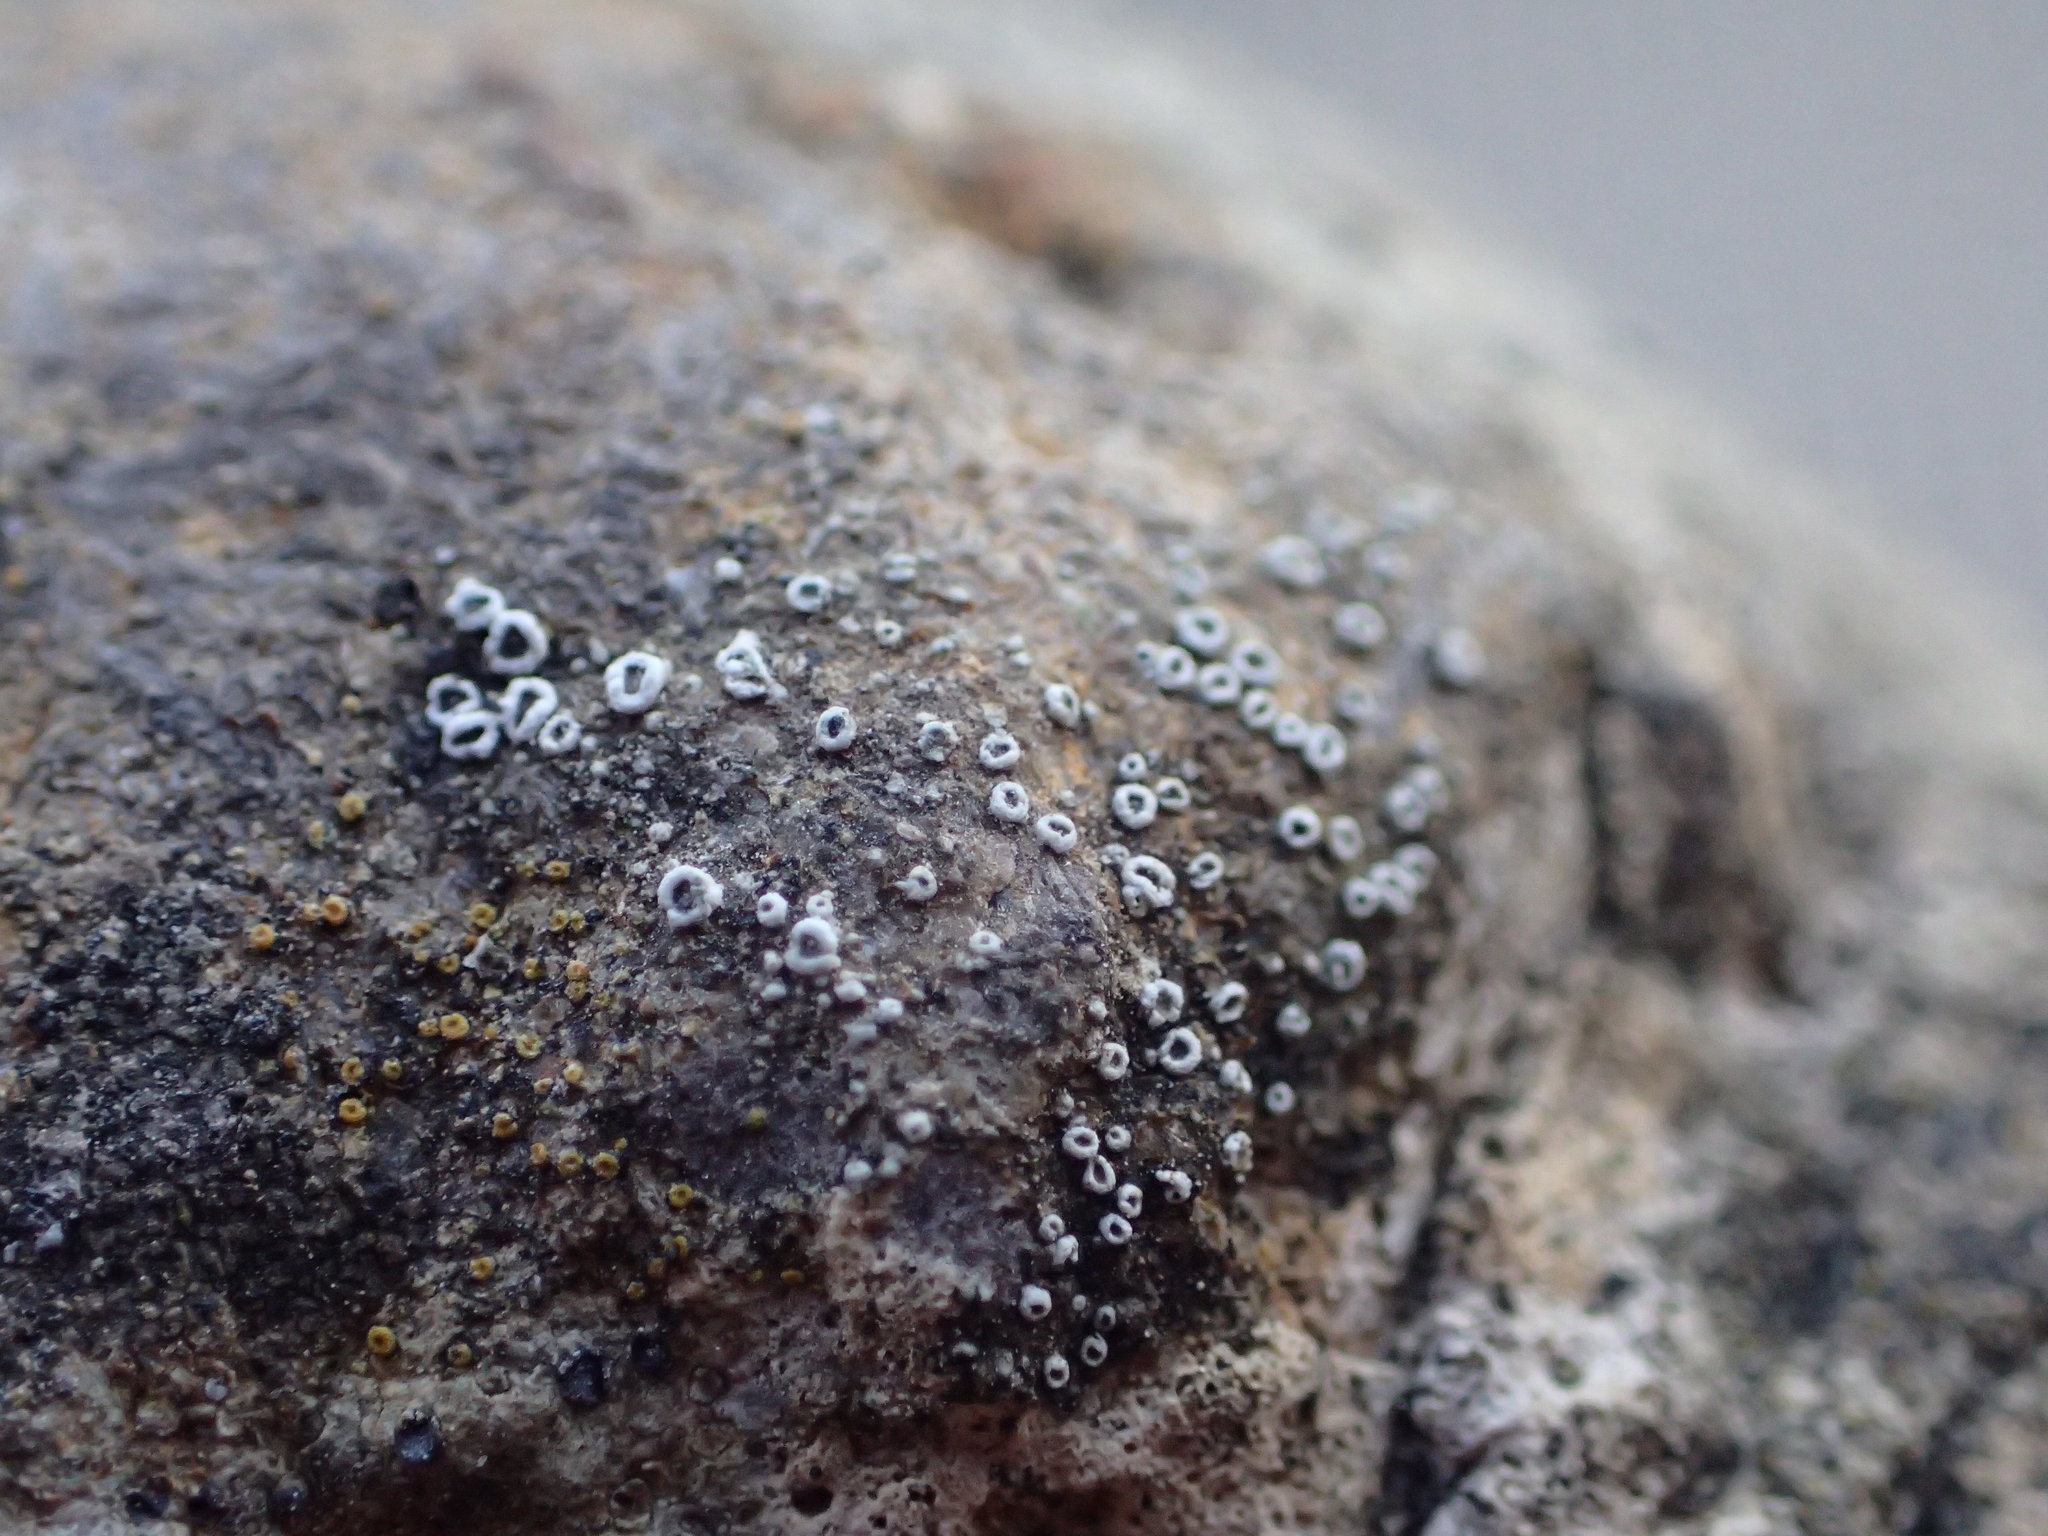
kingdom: Fungi
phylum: Ascomycota
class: Lecanoromycetes
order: Lecanorales
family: Lecanoraceae
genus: Polyozosia
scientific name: Polyozosia dispersa
